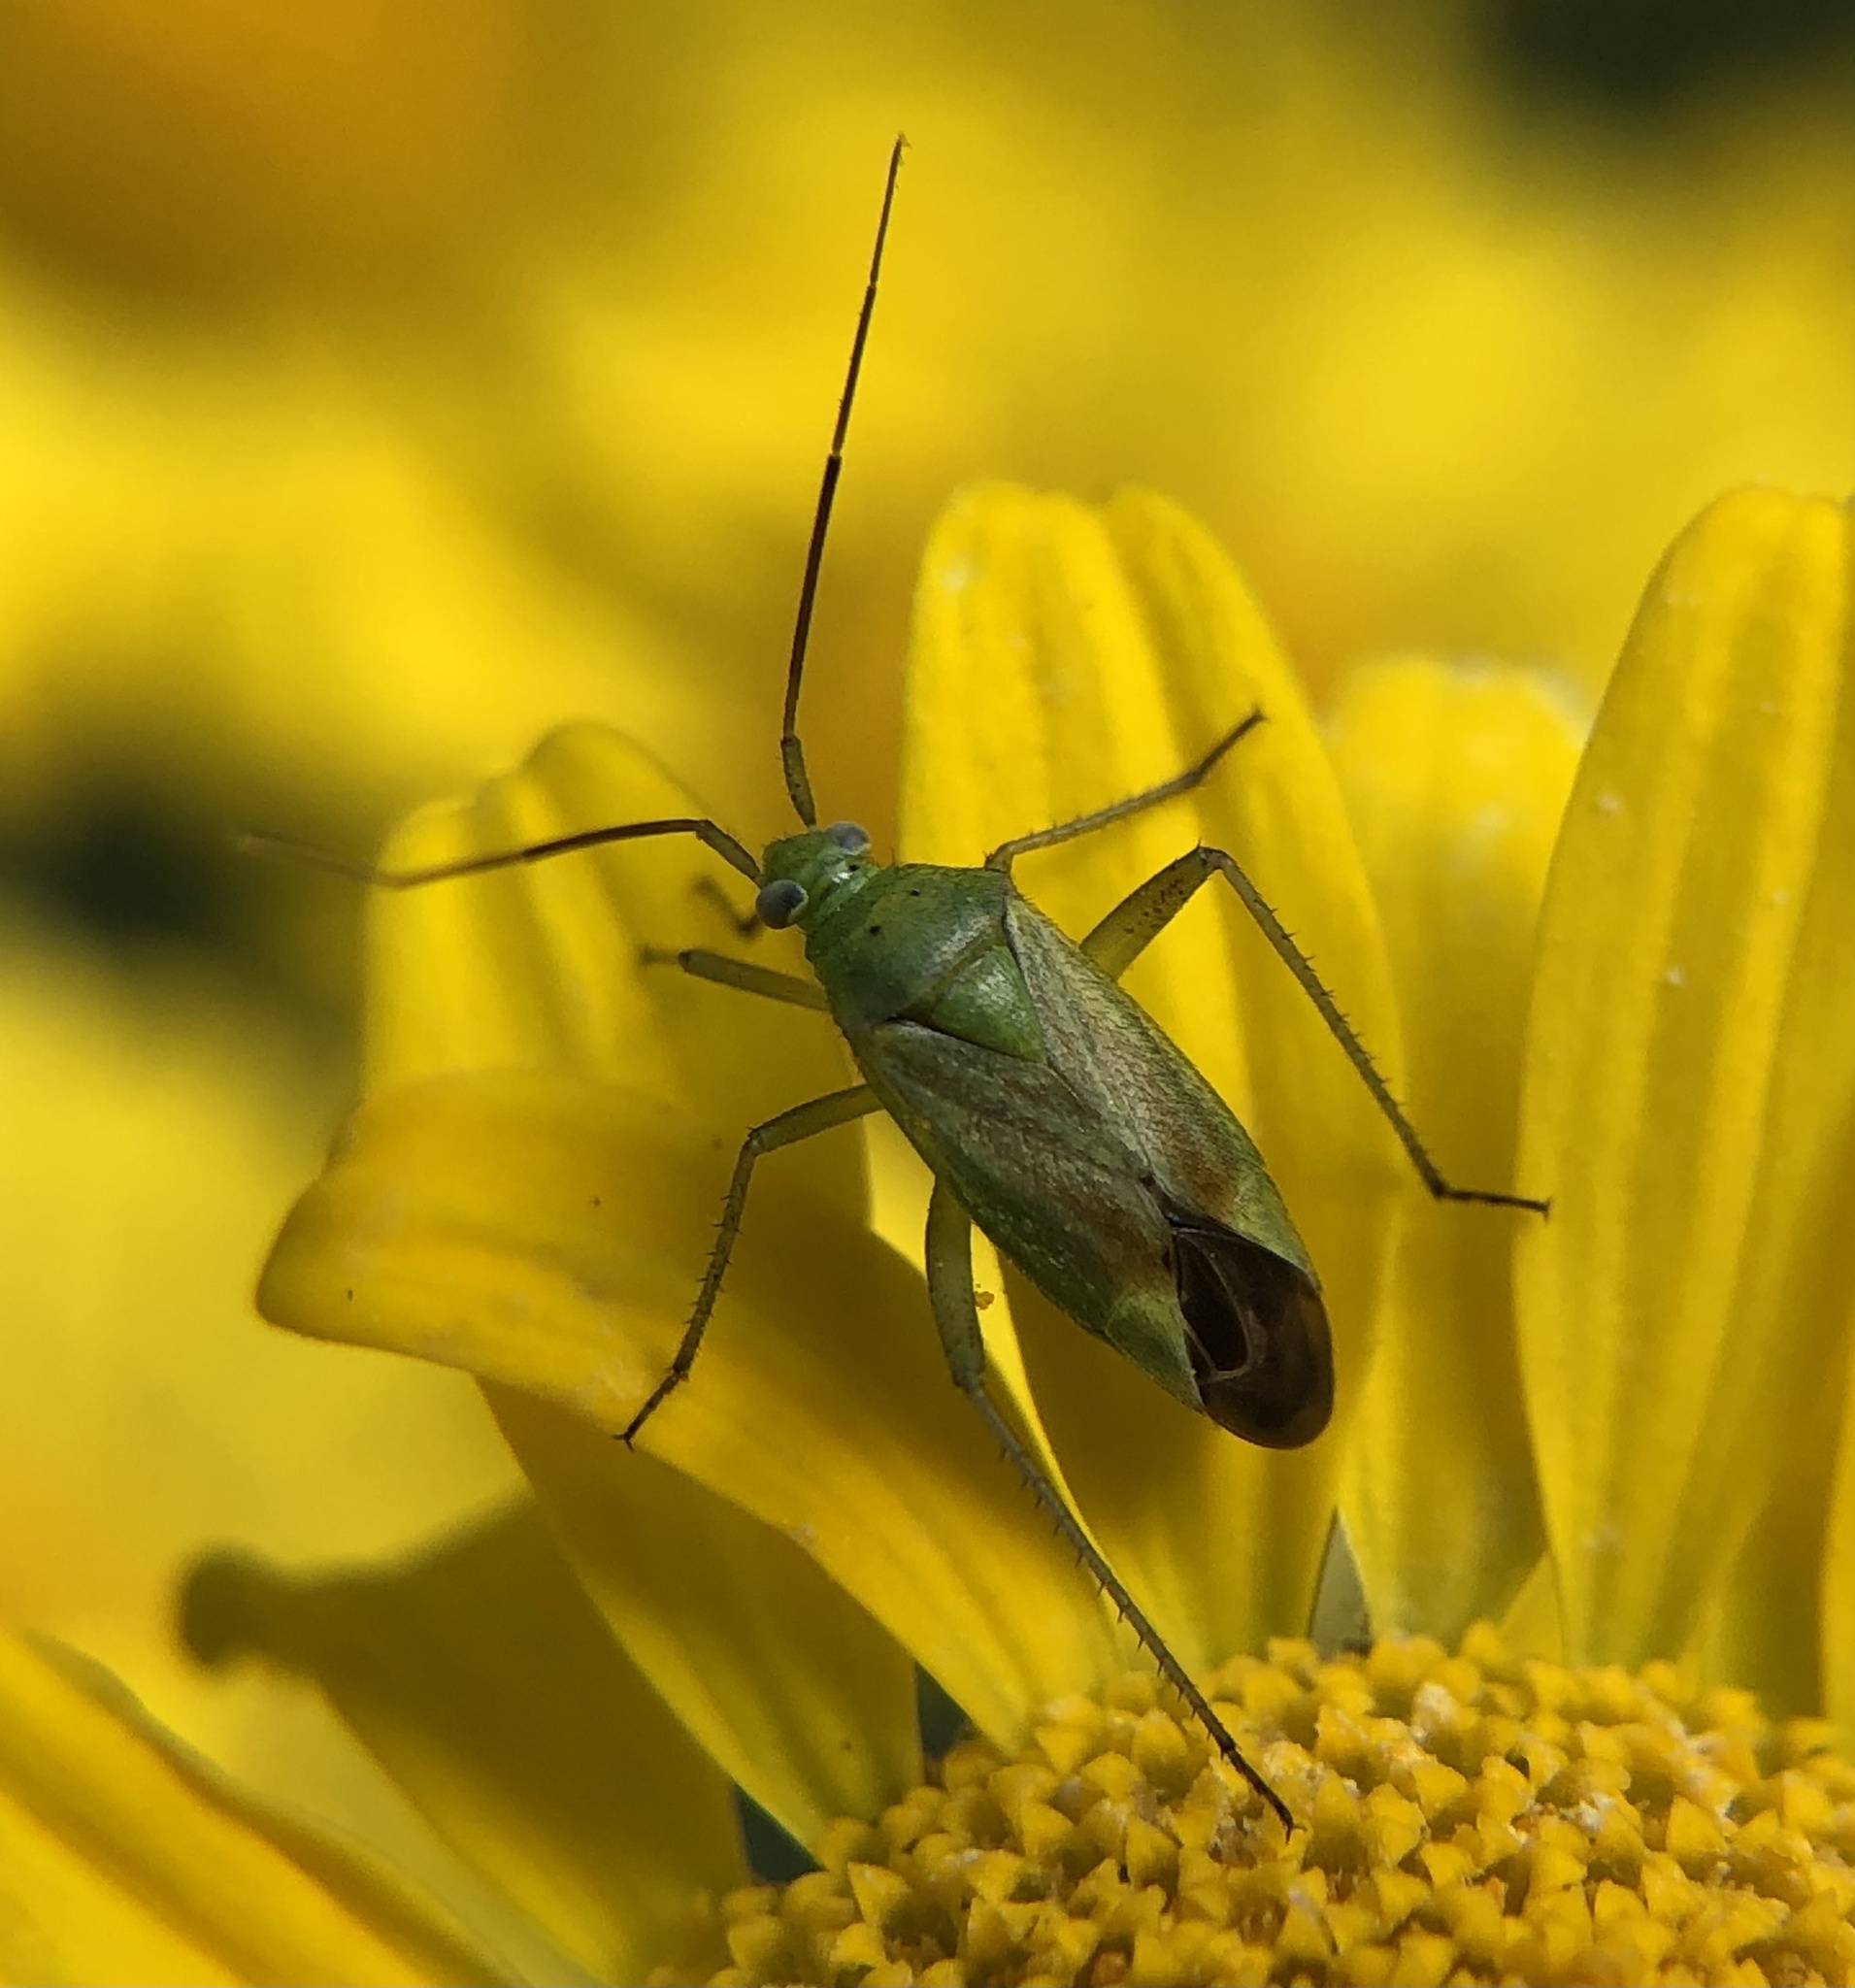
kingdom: Animalia
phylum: Arthropoda
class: Insecta
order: Hemiptera
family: Miridae
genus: Closterotomus
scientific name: Closterotomus norvegicus
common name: Plant bug
